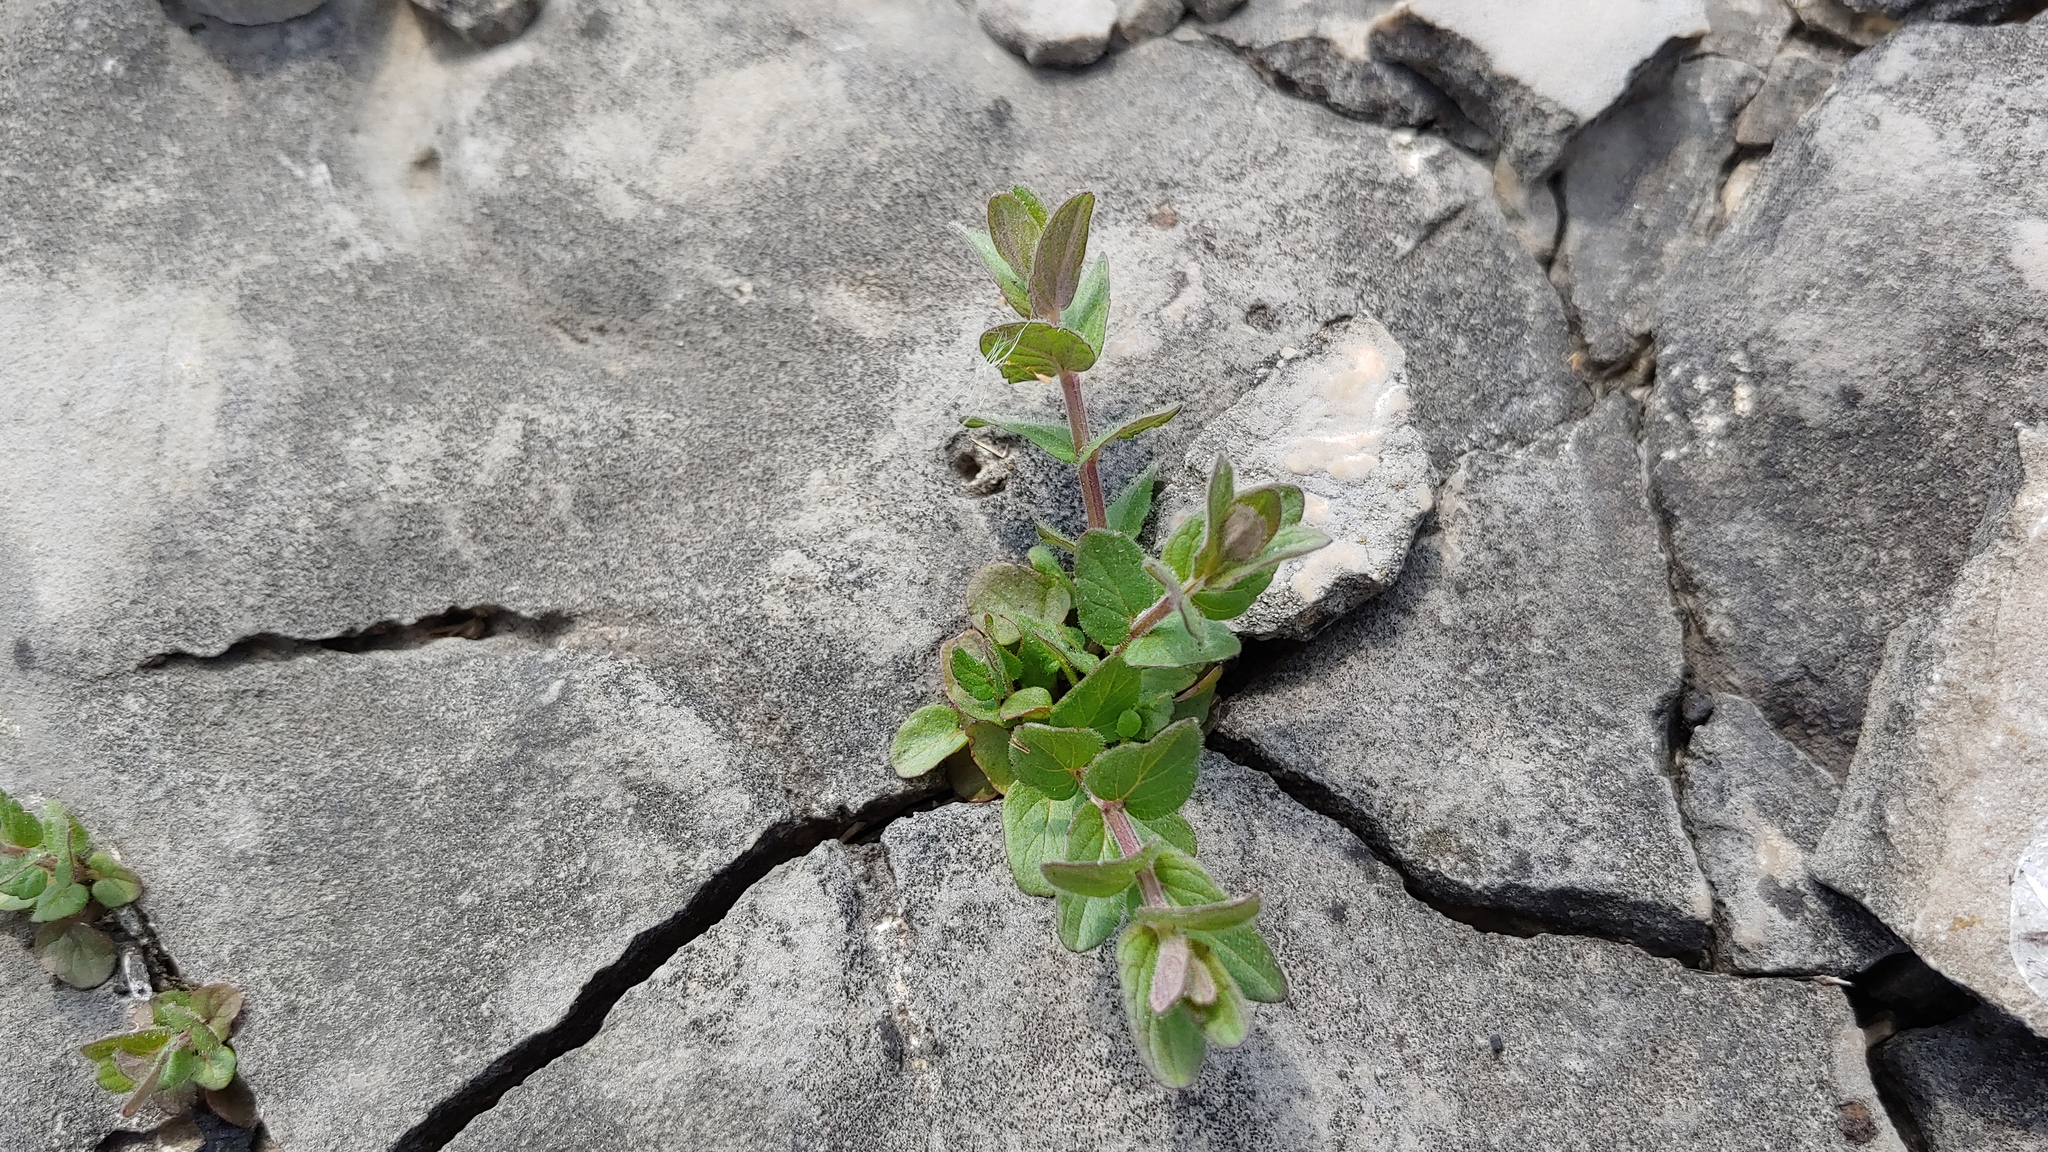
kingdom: Plantae
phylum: Tracheophyta
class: Magnoliopsida
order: Lamiales
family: Lamiaceae
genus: Scutellaria
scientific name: Scutellaria parvula
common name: Little scullcap
